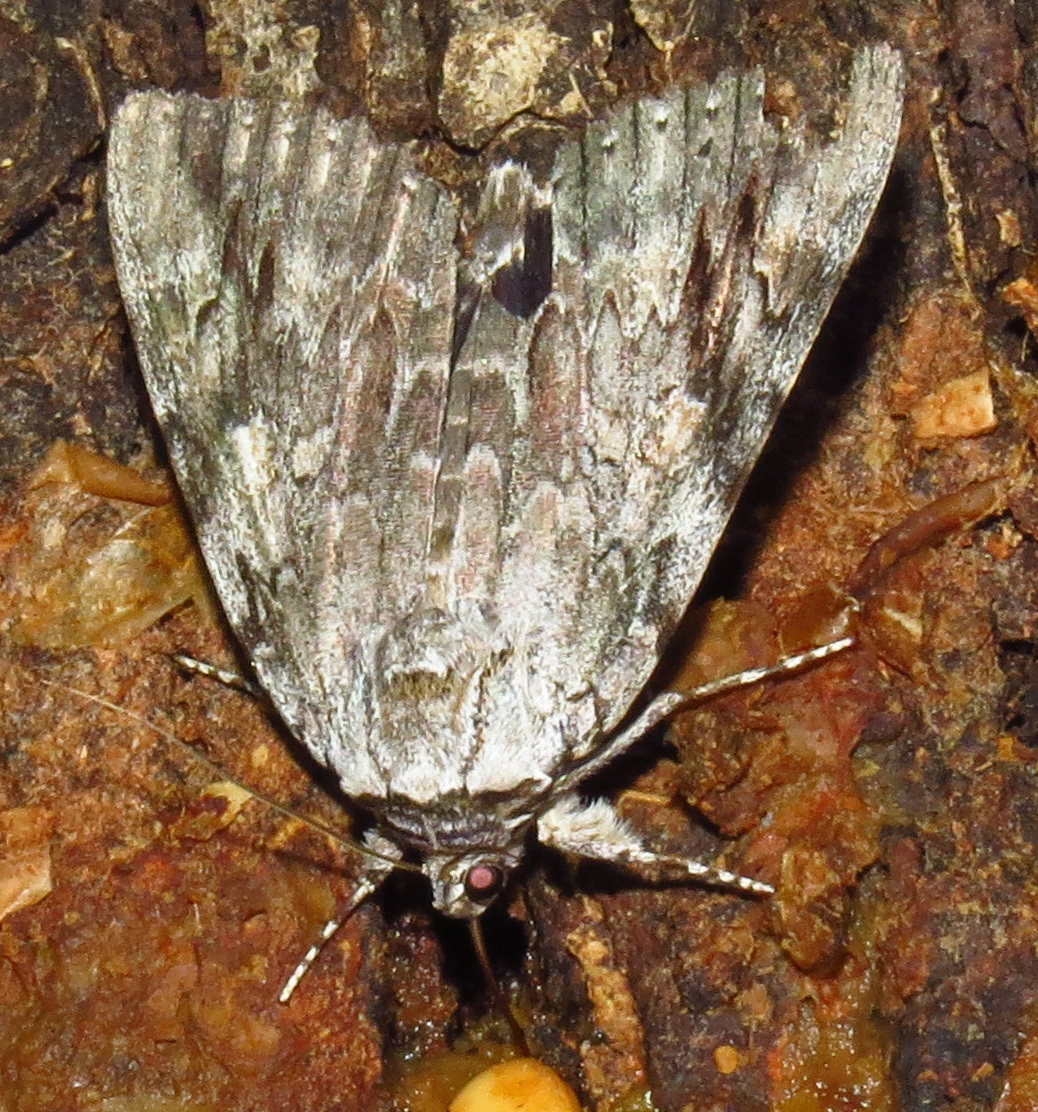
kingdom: Animalia
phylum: Arthropoda
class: Insecta
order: Lepidoptera
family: Erebidae
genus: Catocala
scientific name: Catocala maestosa
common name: Sad underwing
